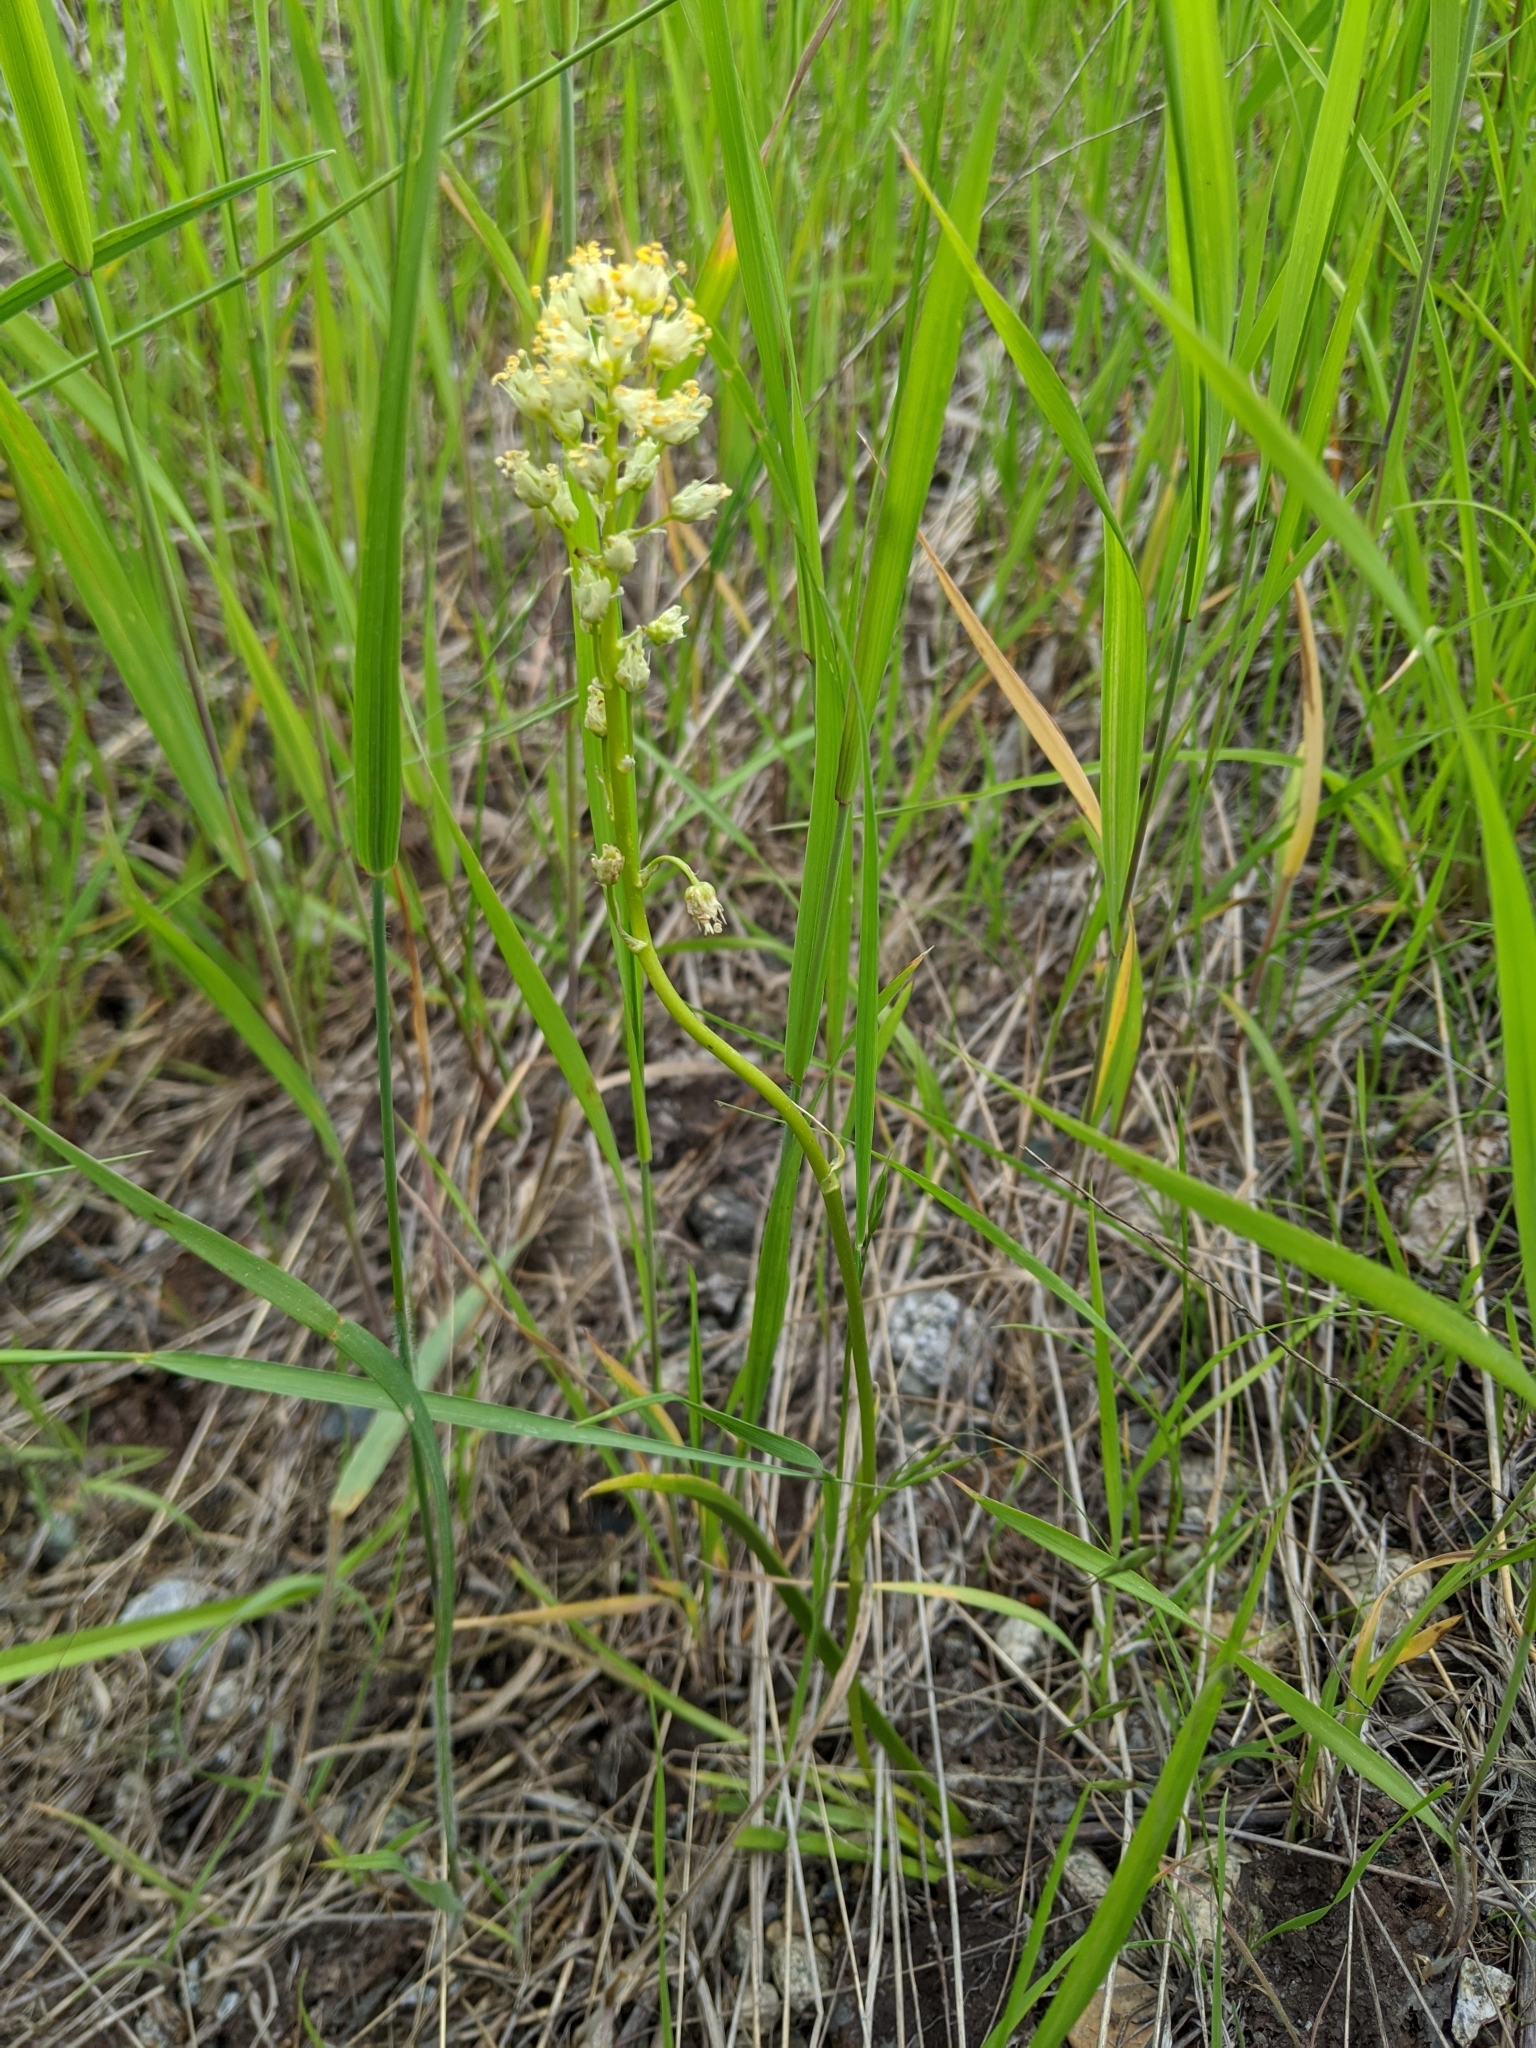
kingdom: Plantae
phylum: Tracheophyta
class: Liliopsida
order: Liliales
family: Melanthiaceae
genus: Toxicoscordion
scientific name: Toxicoscordion venenosum
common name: Meadow death camas
